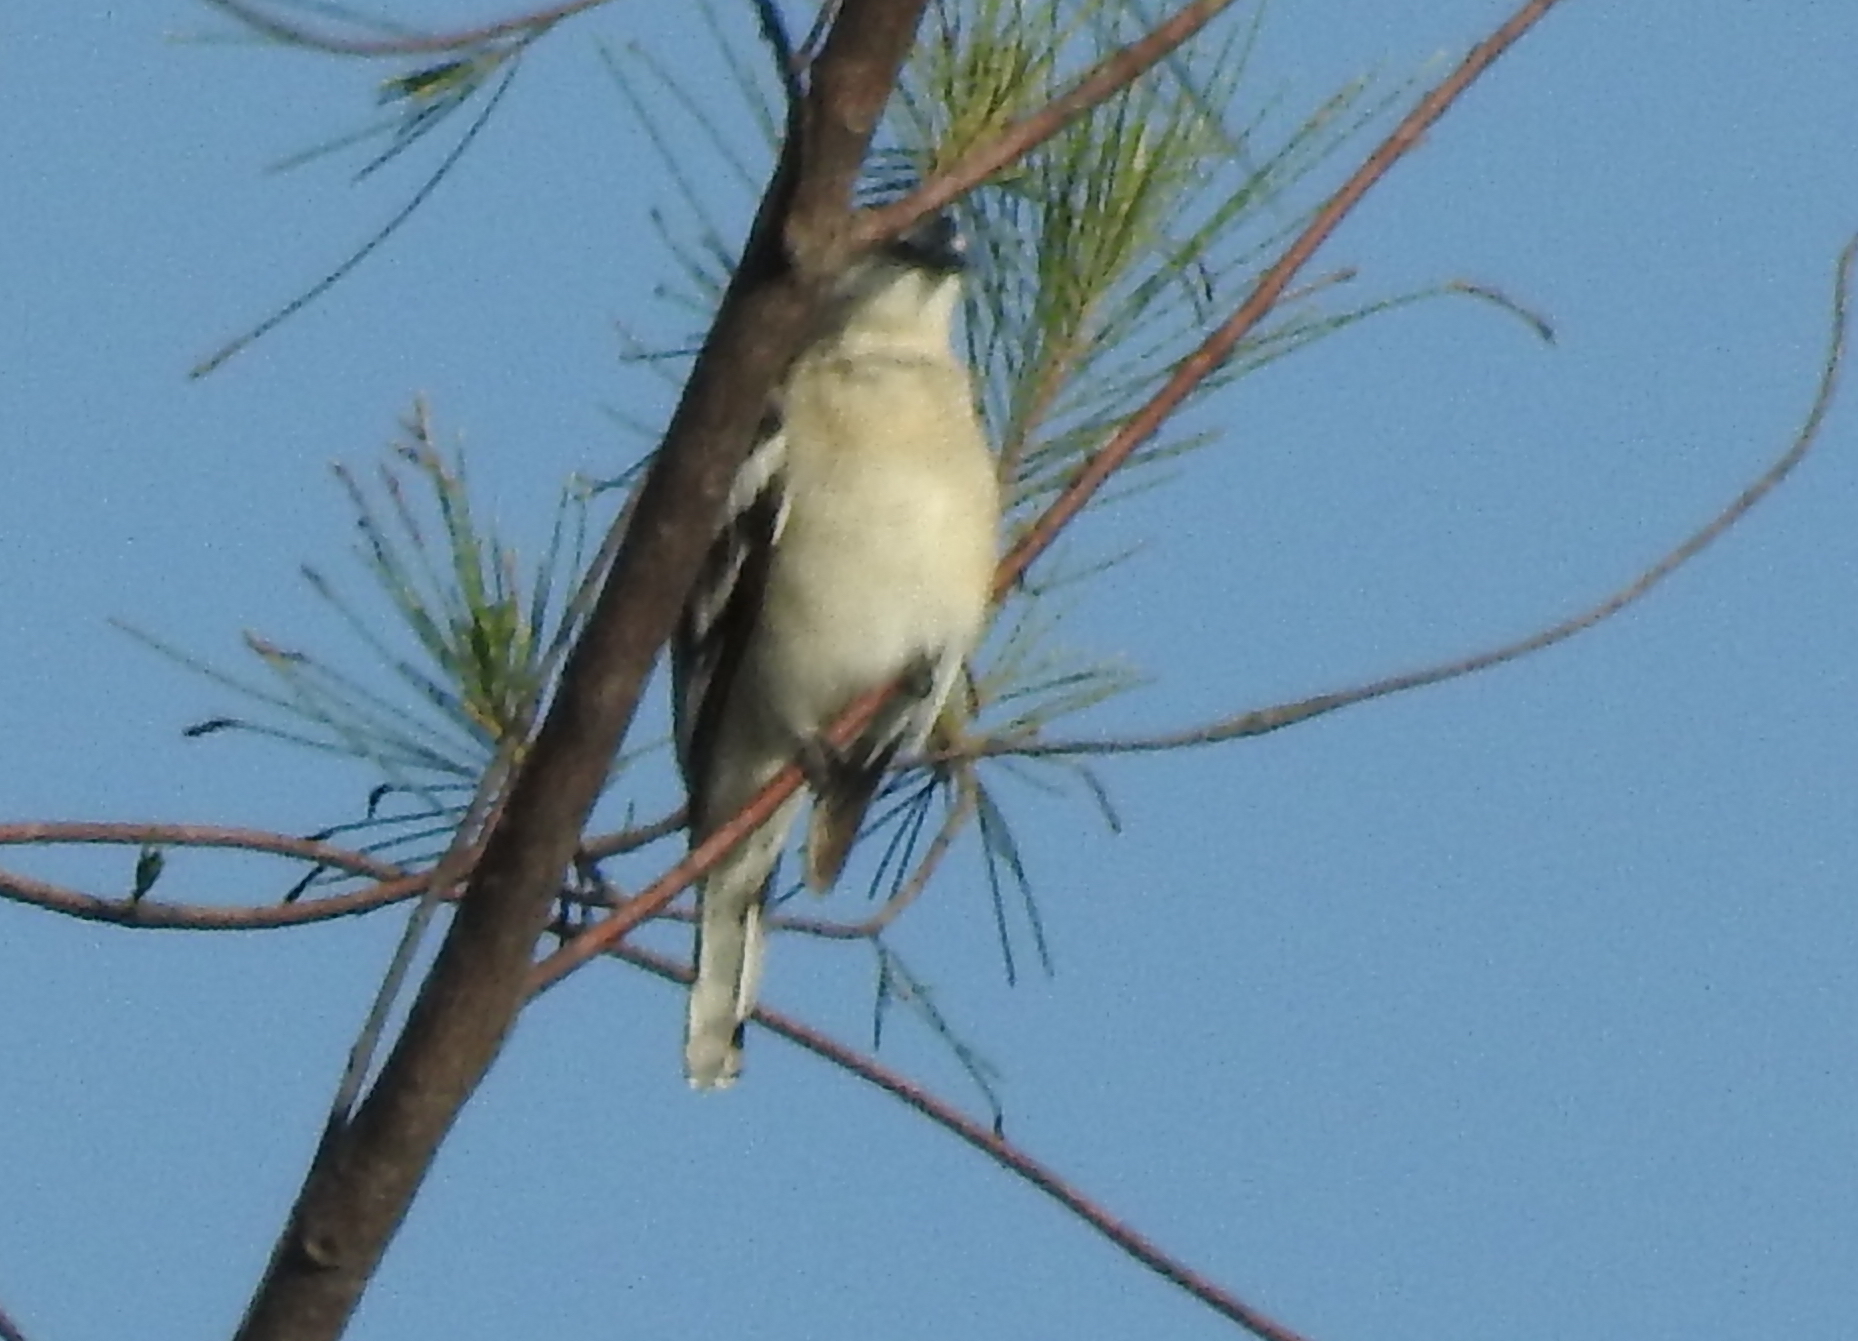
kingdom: Animalia
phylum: Chordata
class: Aves
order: Passeriformes
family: Campephagidae
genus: Lalage
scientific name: Lalage nigra
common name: Pied triller
